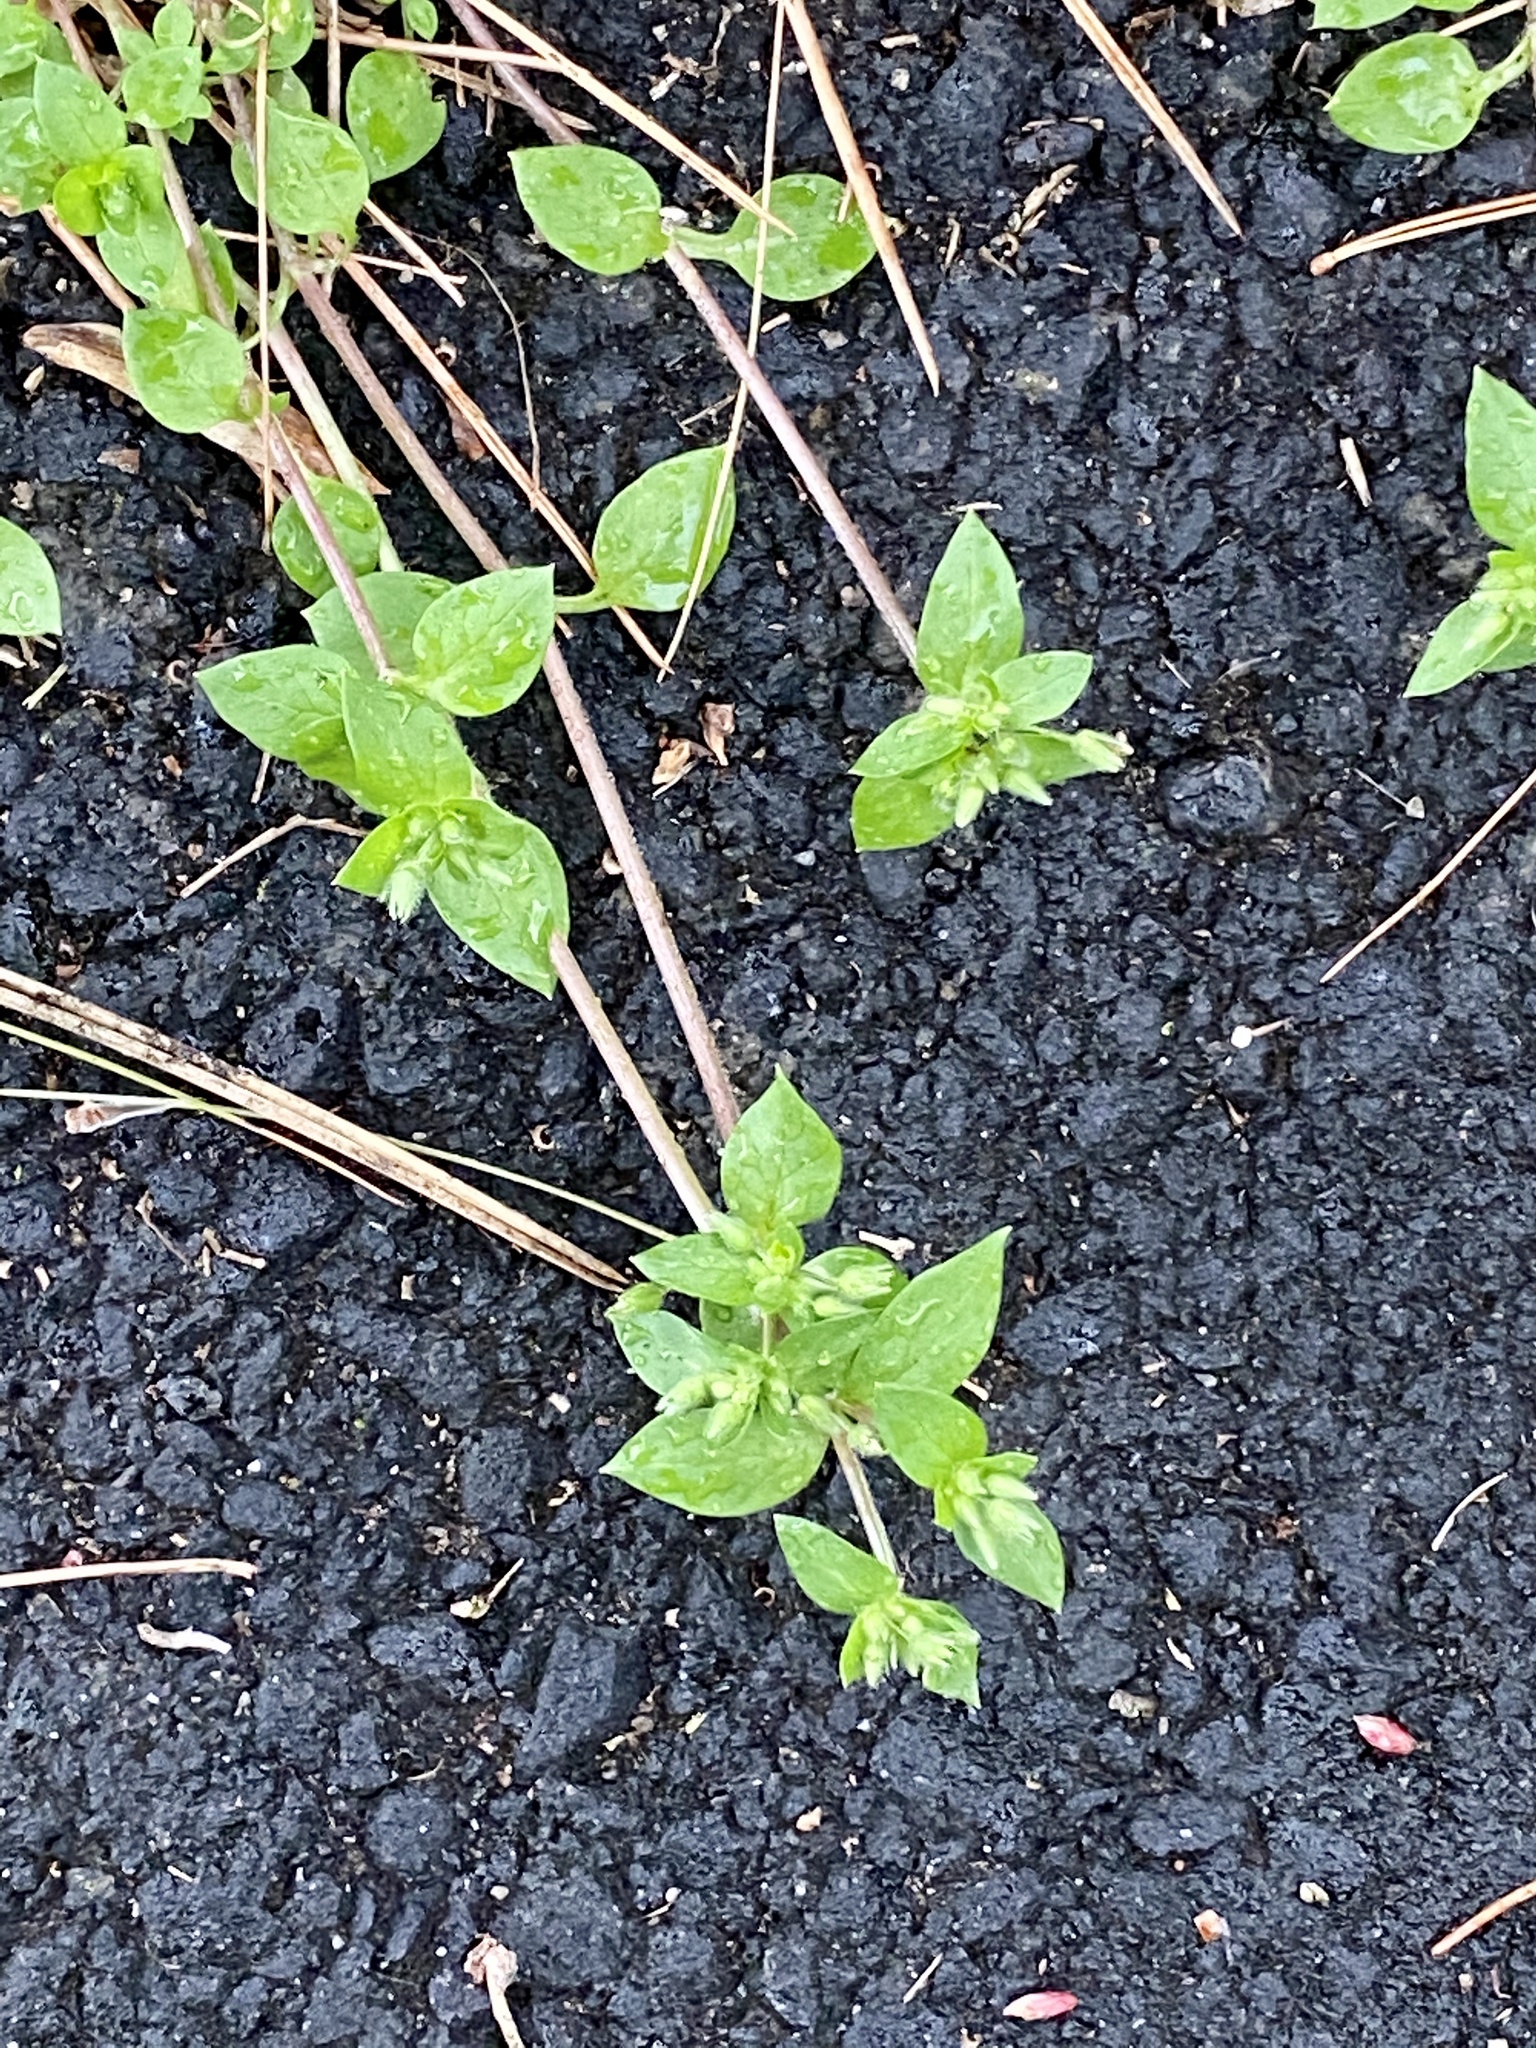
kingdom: Plantae
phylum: Tracheophyta
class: Magnoliopsida
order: Caryophyllales
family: Caryophyllaceae
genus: Stellaria
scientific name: Stellaria media
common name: Common chickweed
